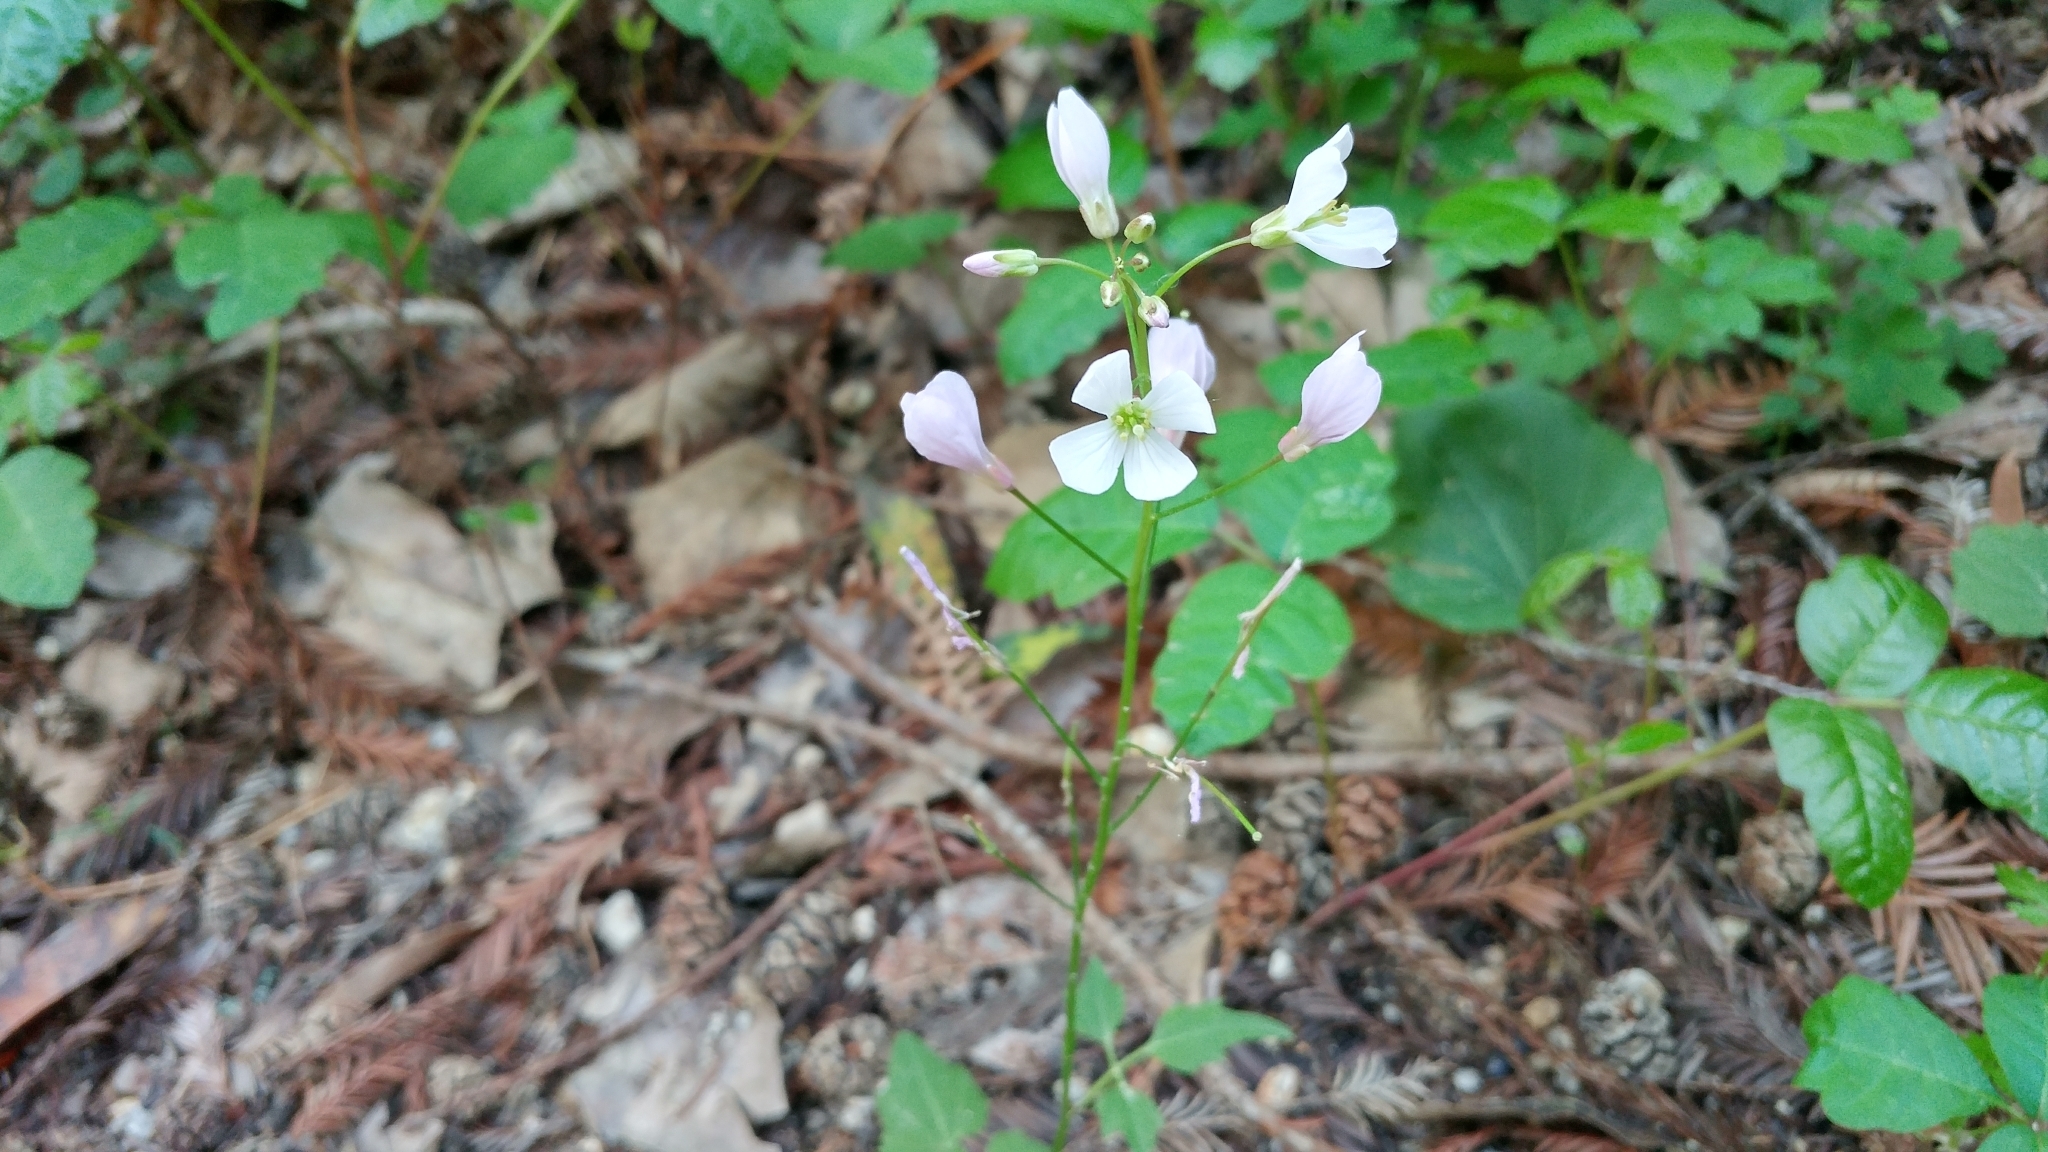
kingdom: Plantae
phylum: Tracheophyta
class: Magnoliopsida
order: Brassicales
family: Brassicaceae
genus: Cardamine
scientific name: Cardamine californica
